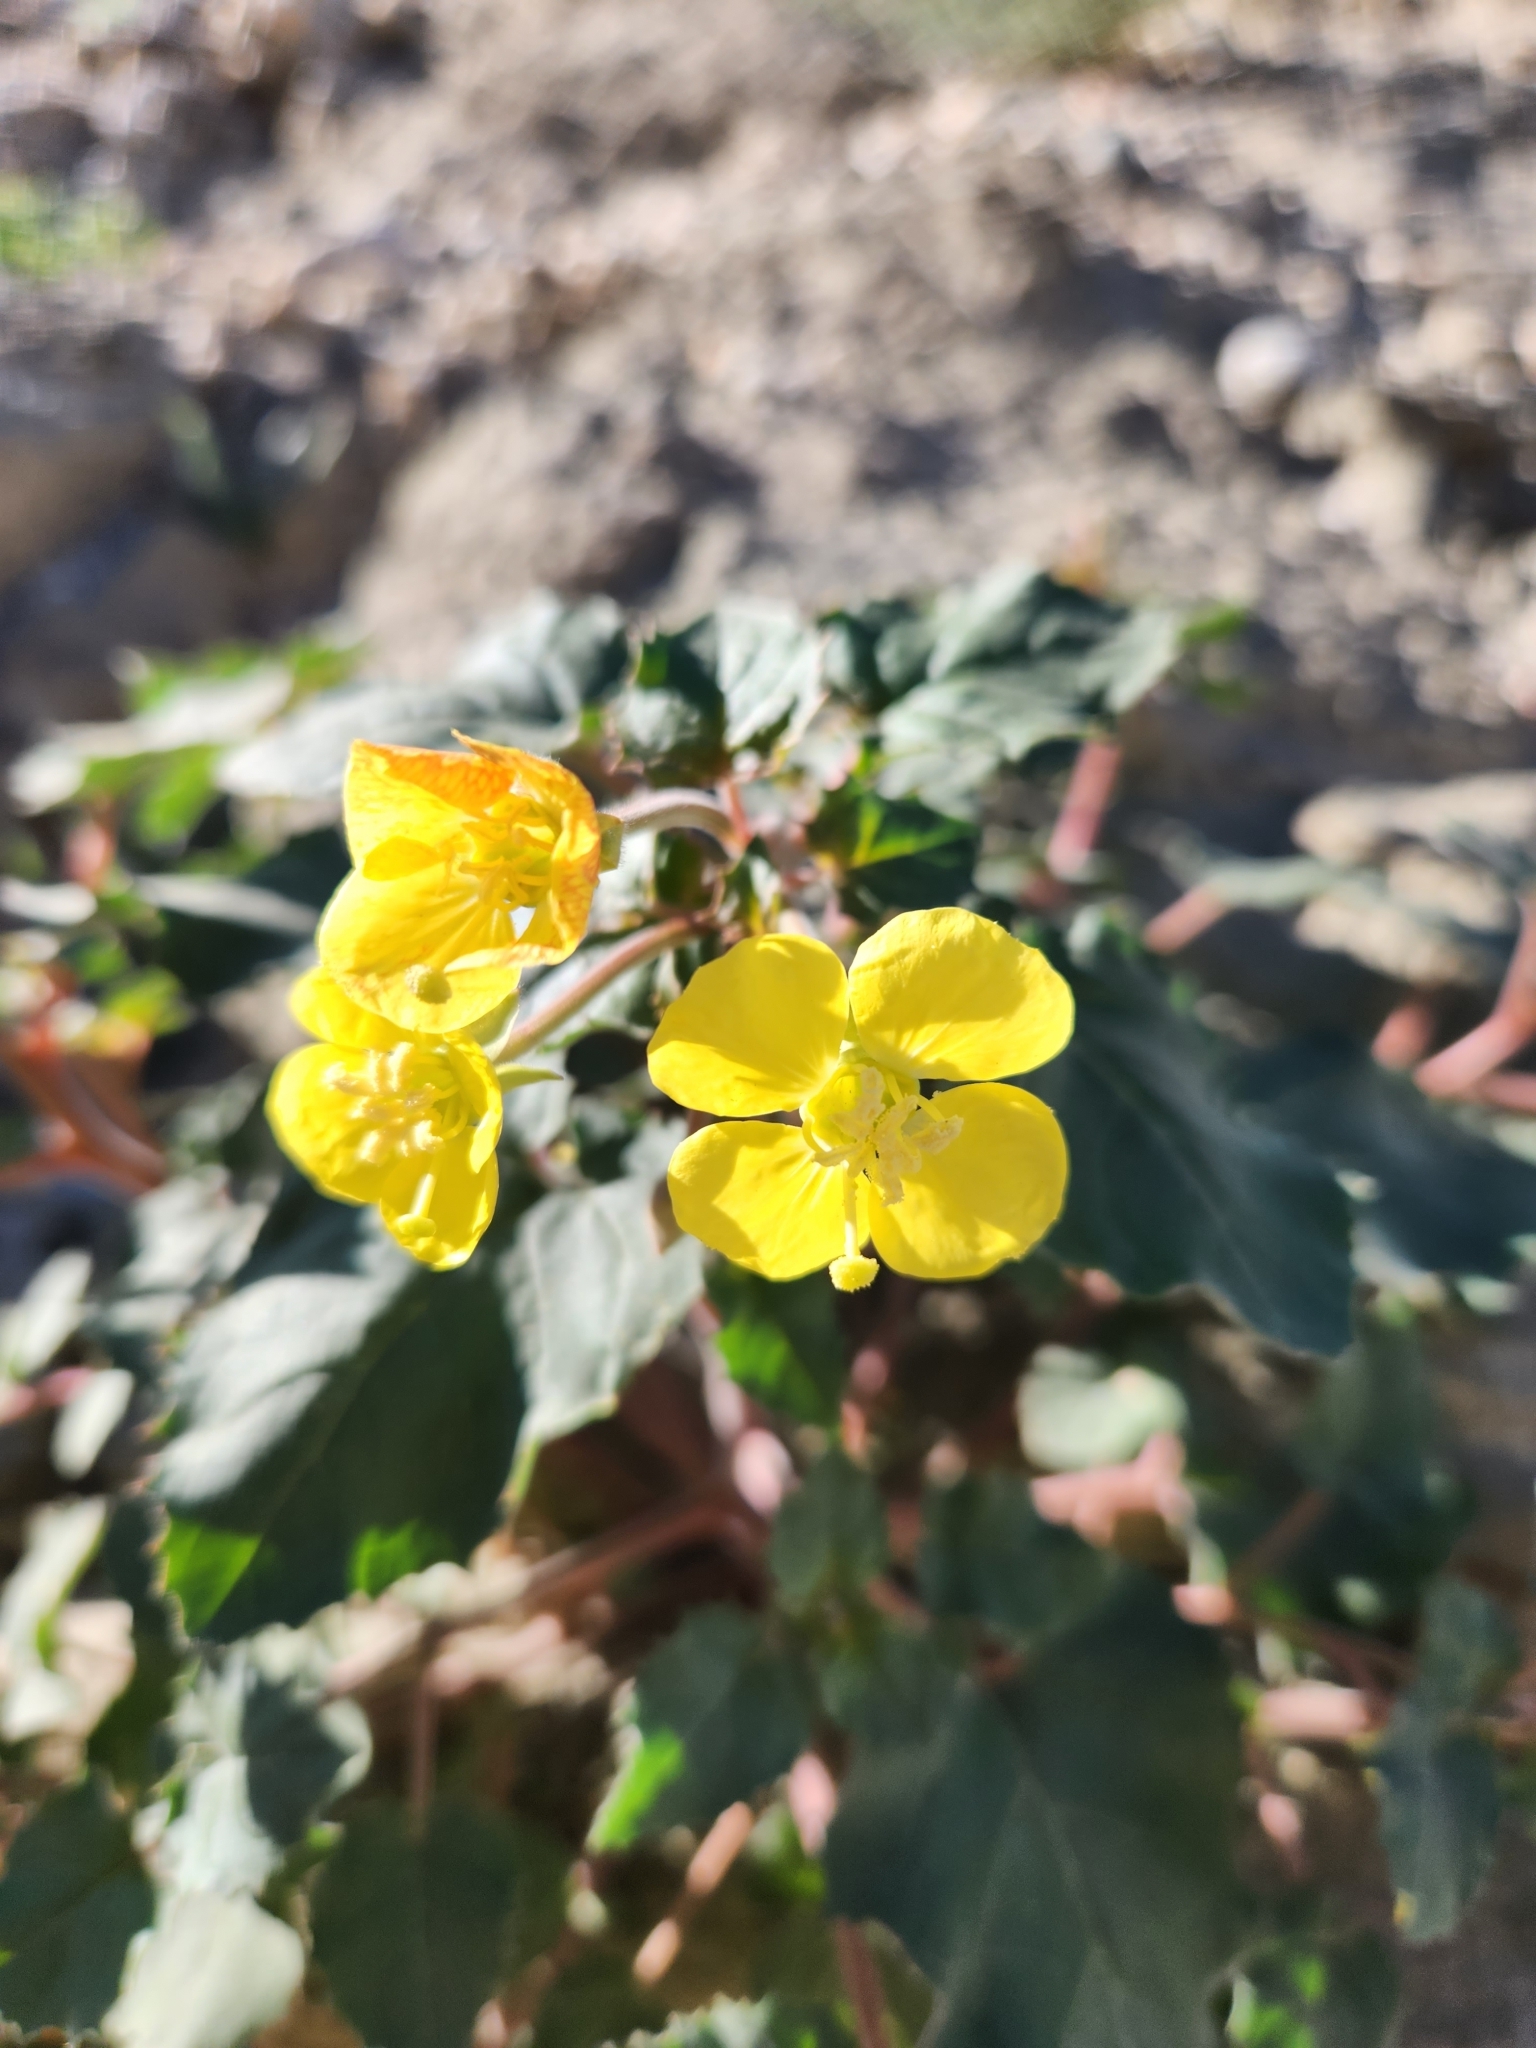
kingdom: Plantae
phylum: Tracheophyta
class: Magnoliopsida
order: Myrtales
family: Onagraceae
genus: Chylismia
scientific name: Chylismia cardiophylla
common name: Heartleaf suncup
